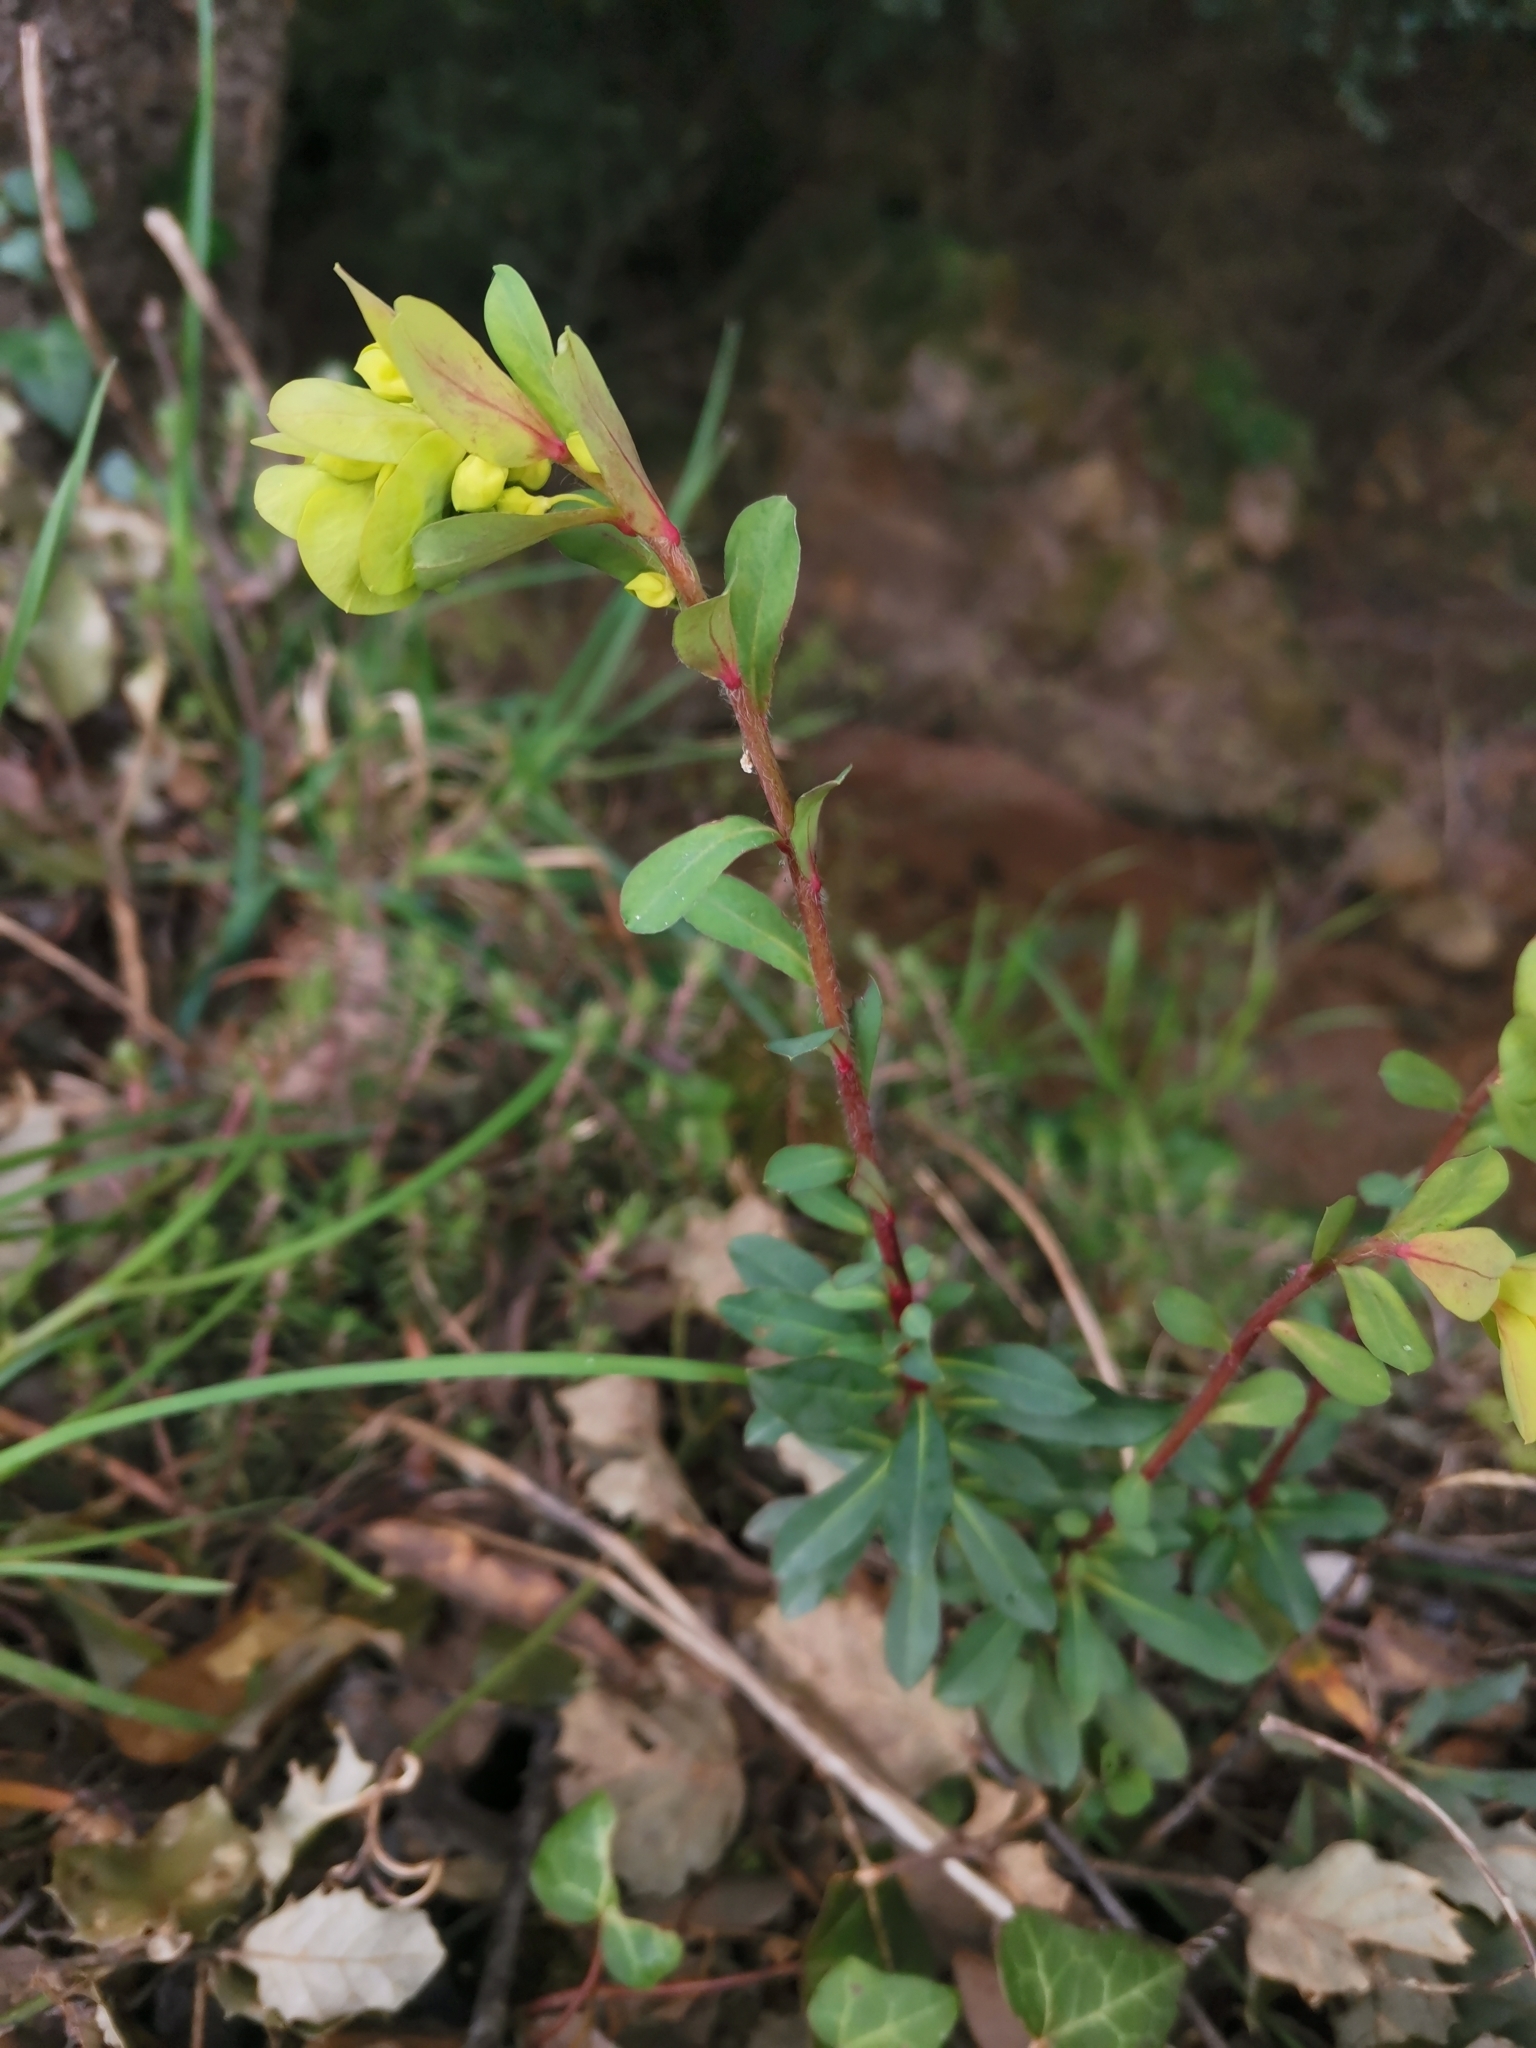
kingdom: Plantae
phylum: Tracheophyta
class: Magnoliopsida
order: Malpighiales
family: Euphorbiaceae
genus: Euphorbia
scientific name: Euphorbia amygdaloides
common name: Wood spurge
